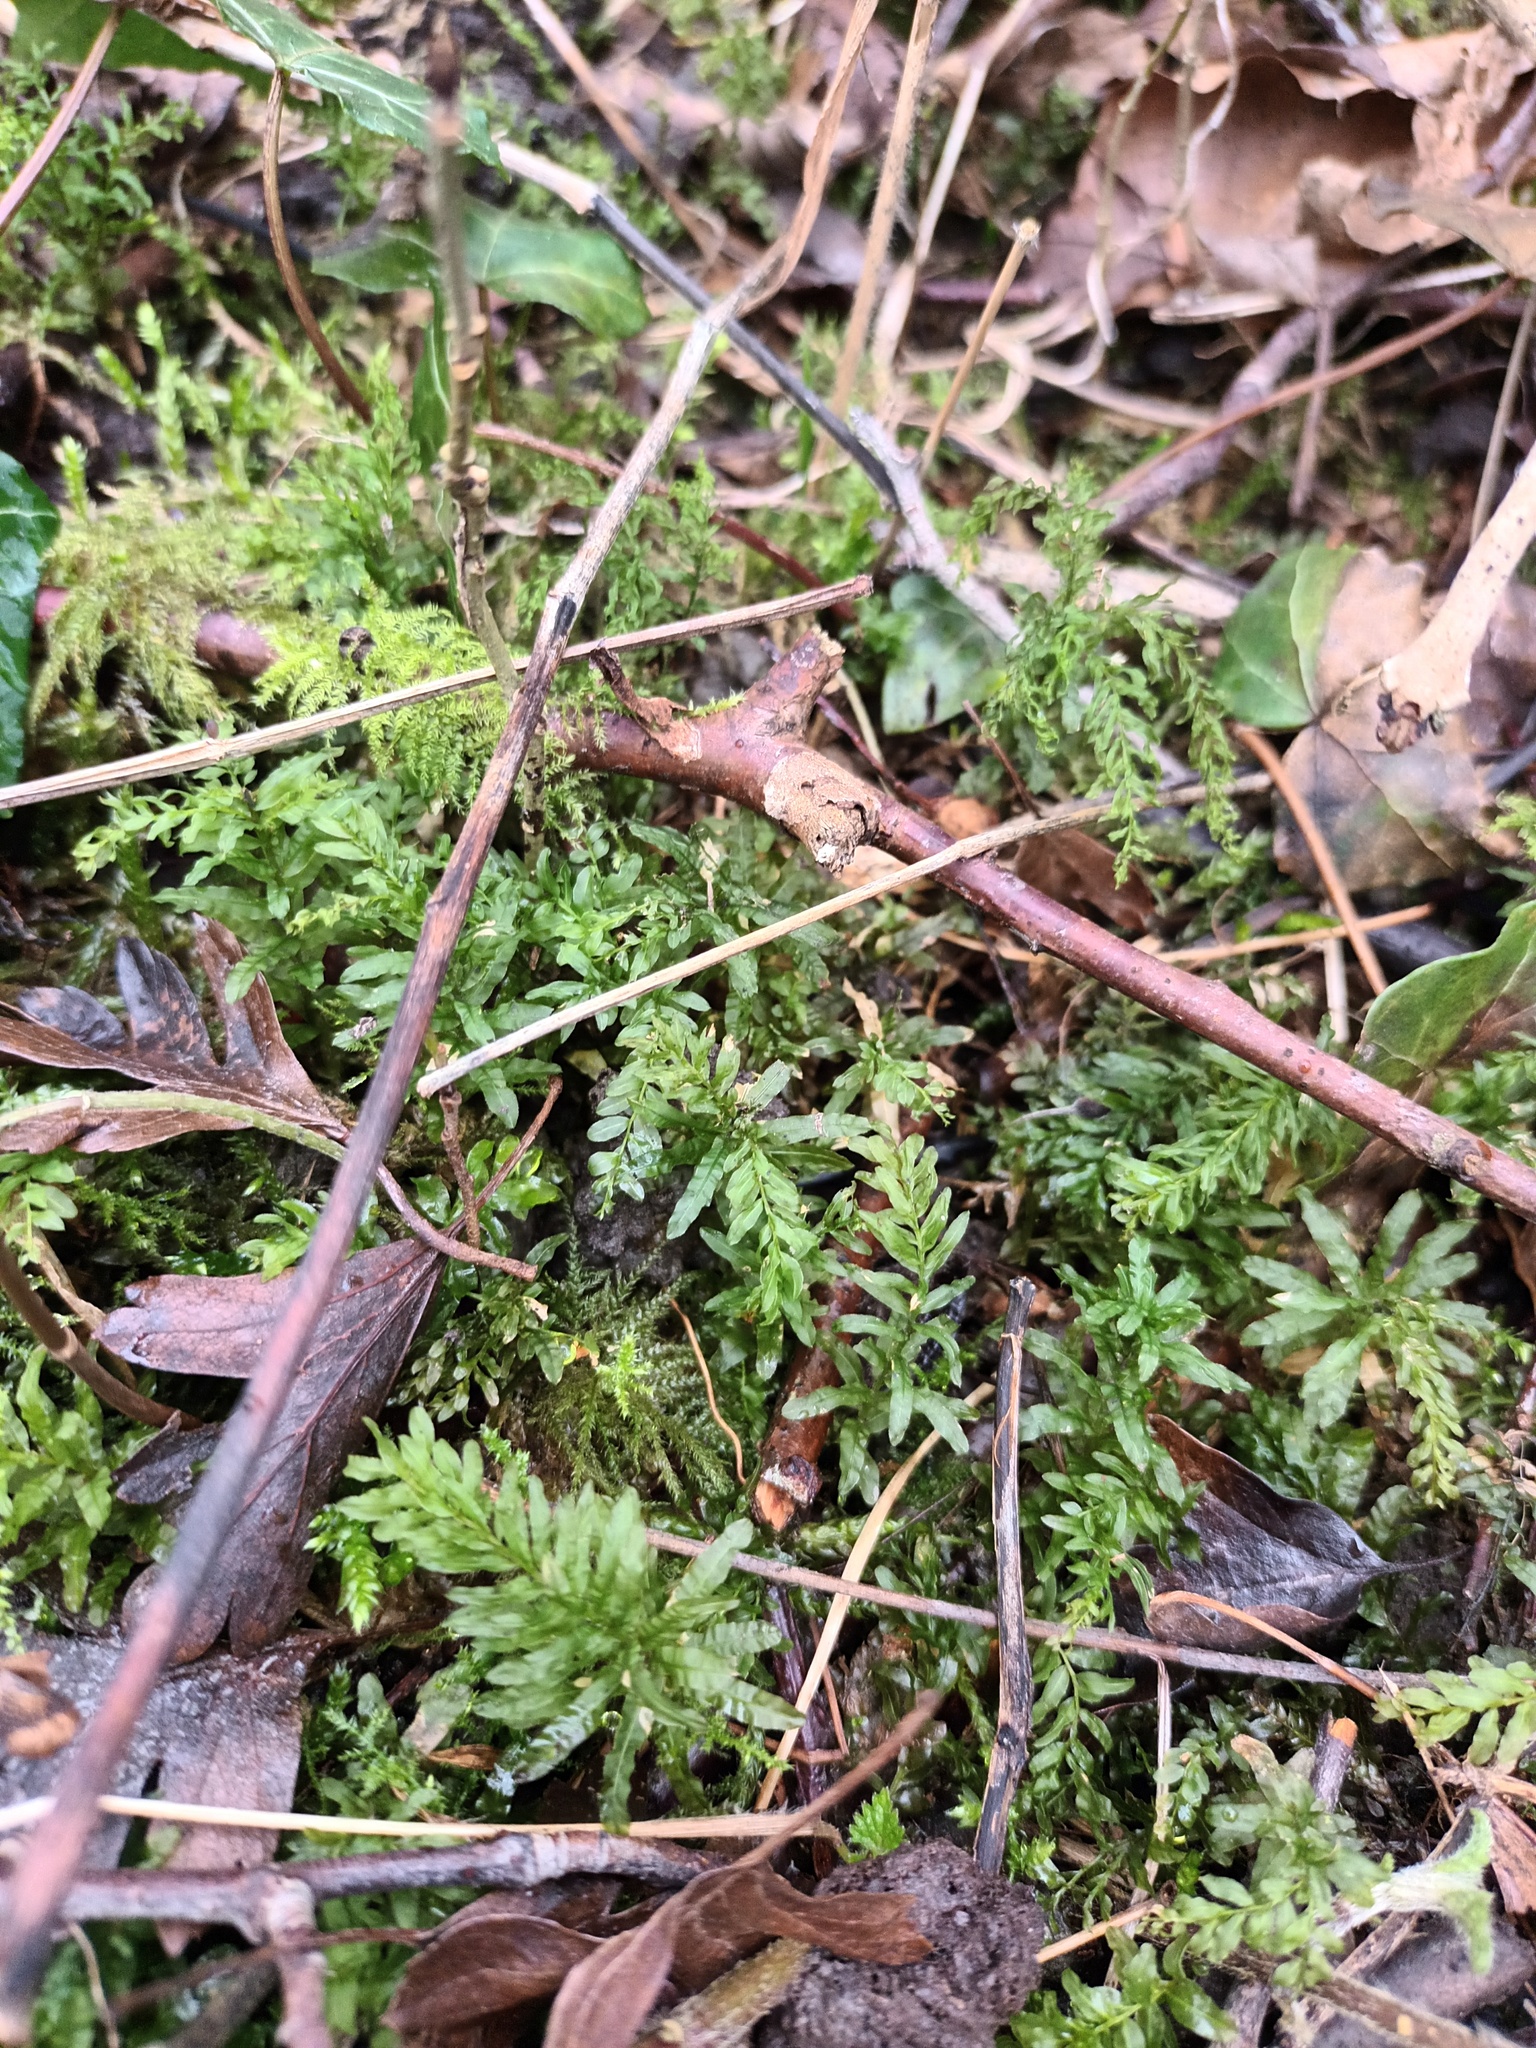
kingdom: Plantae
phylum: Bryophyta
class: Bryopsida
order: Bryales
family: Mniaceae
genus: Plagiomnium
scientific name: Plagiomnium undulatum
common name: Hart's-tongue thyme-moss
